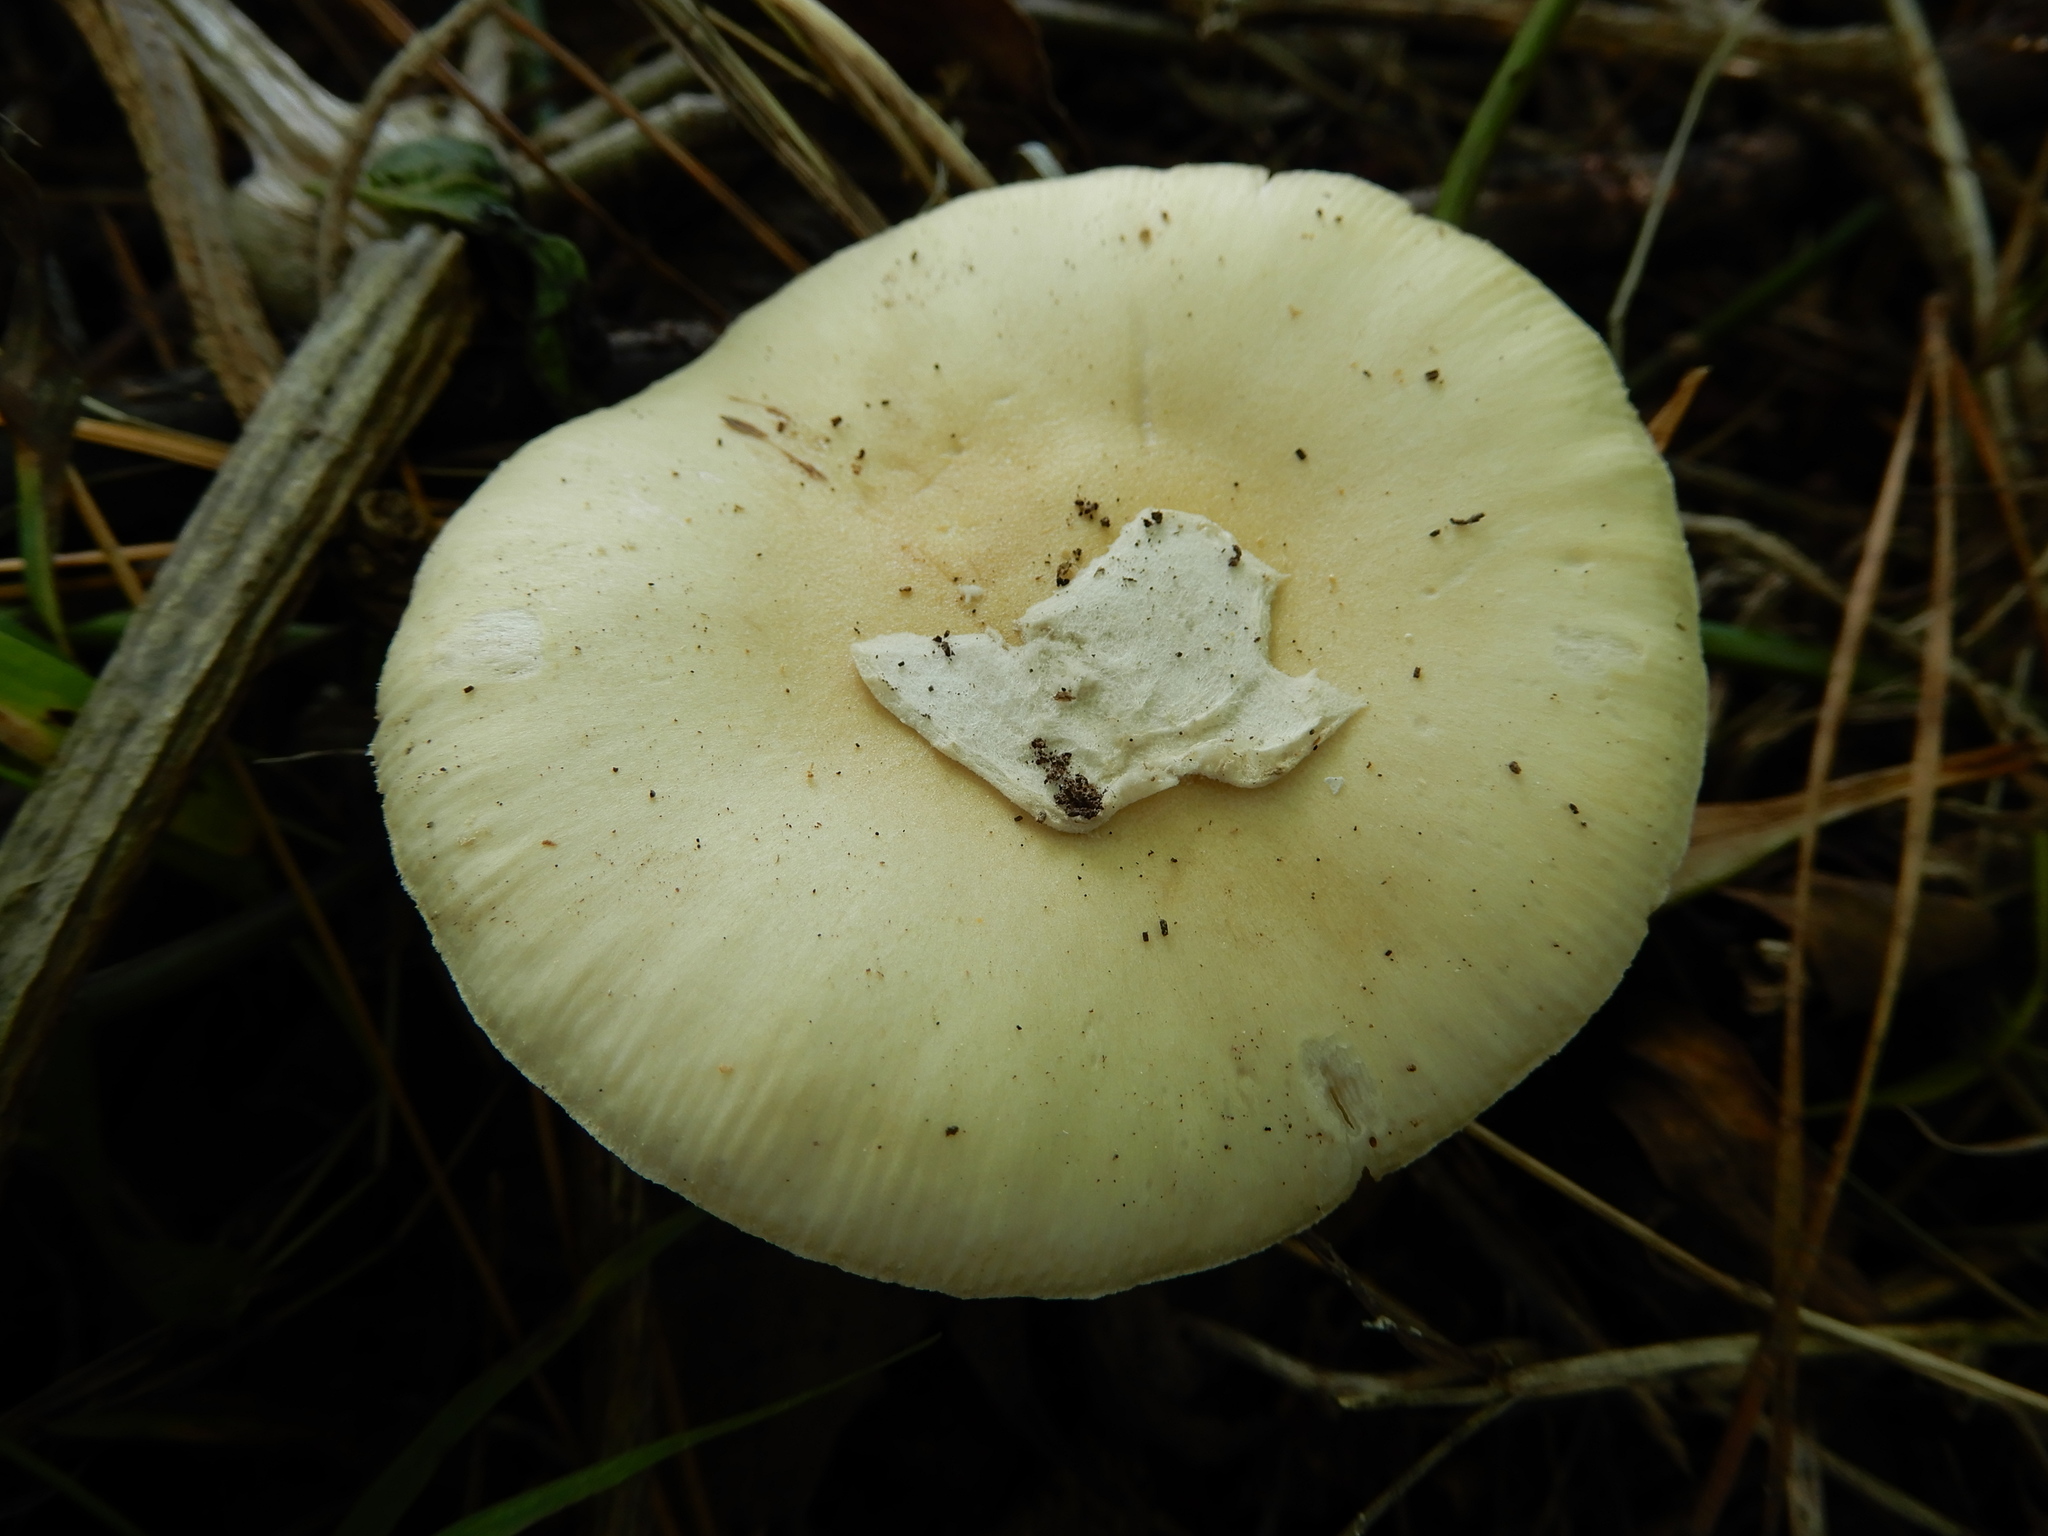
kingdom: Fungi
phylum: Basidiomycota
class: Agaricomycetes
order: Agaricales
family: Amanitaceae
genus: Amanita
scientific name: Amanita gemmata
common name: Jewelled amanita
